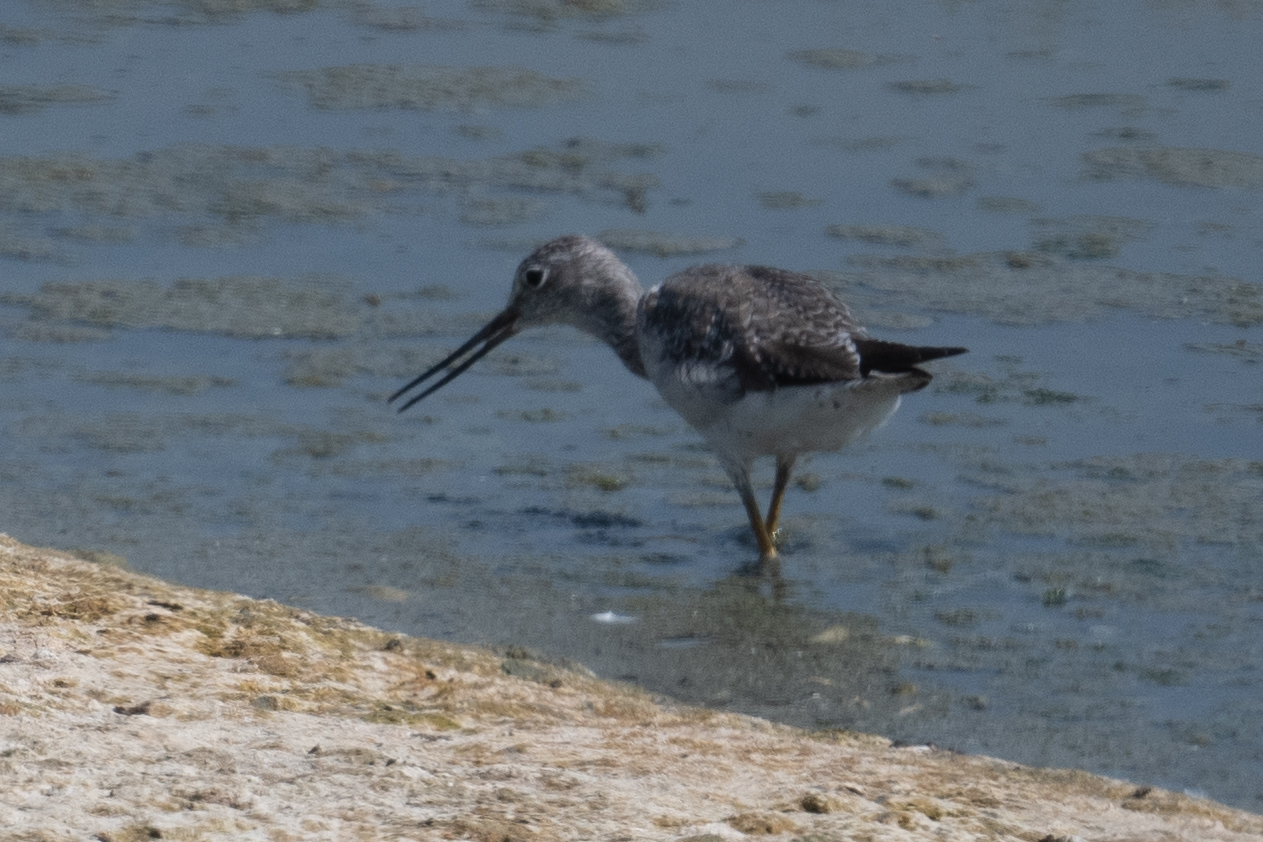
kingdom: Animalia
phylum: Chordata
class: Aves
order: Charadriiformes
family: Scolopacidae
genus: Tringa
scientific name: Tringa melanoleuca
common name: Greater yellowlegs
